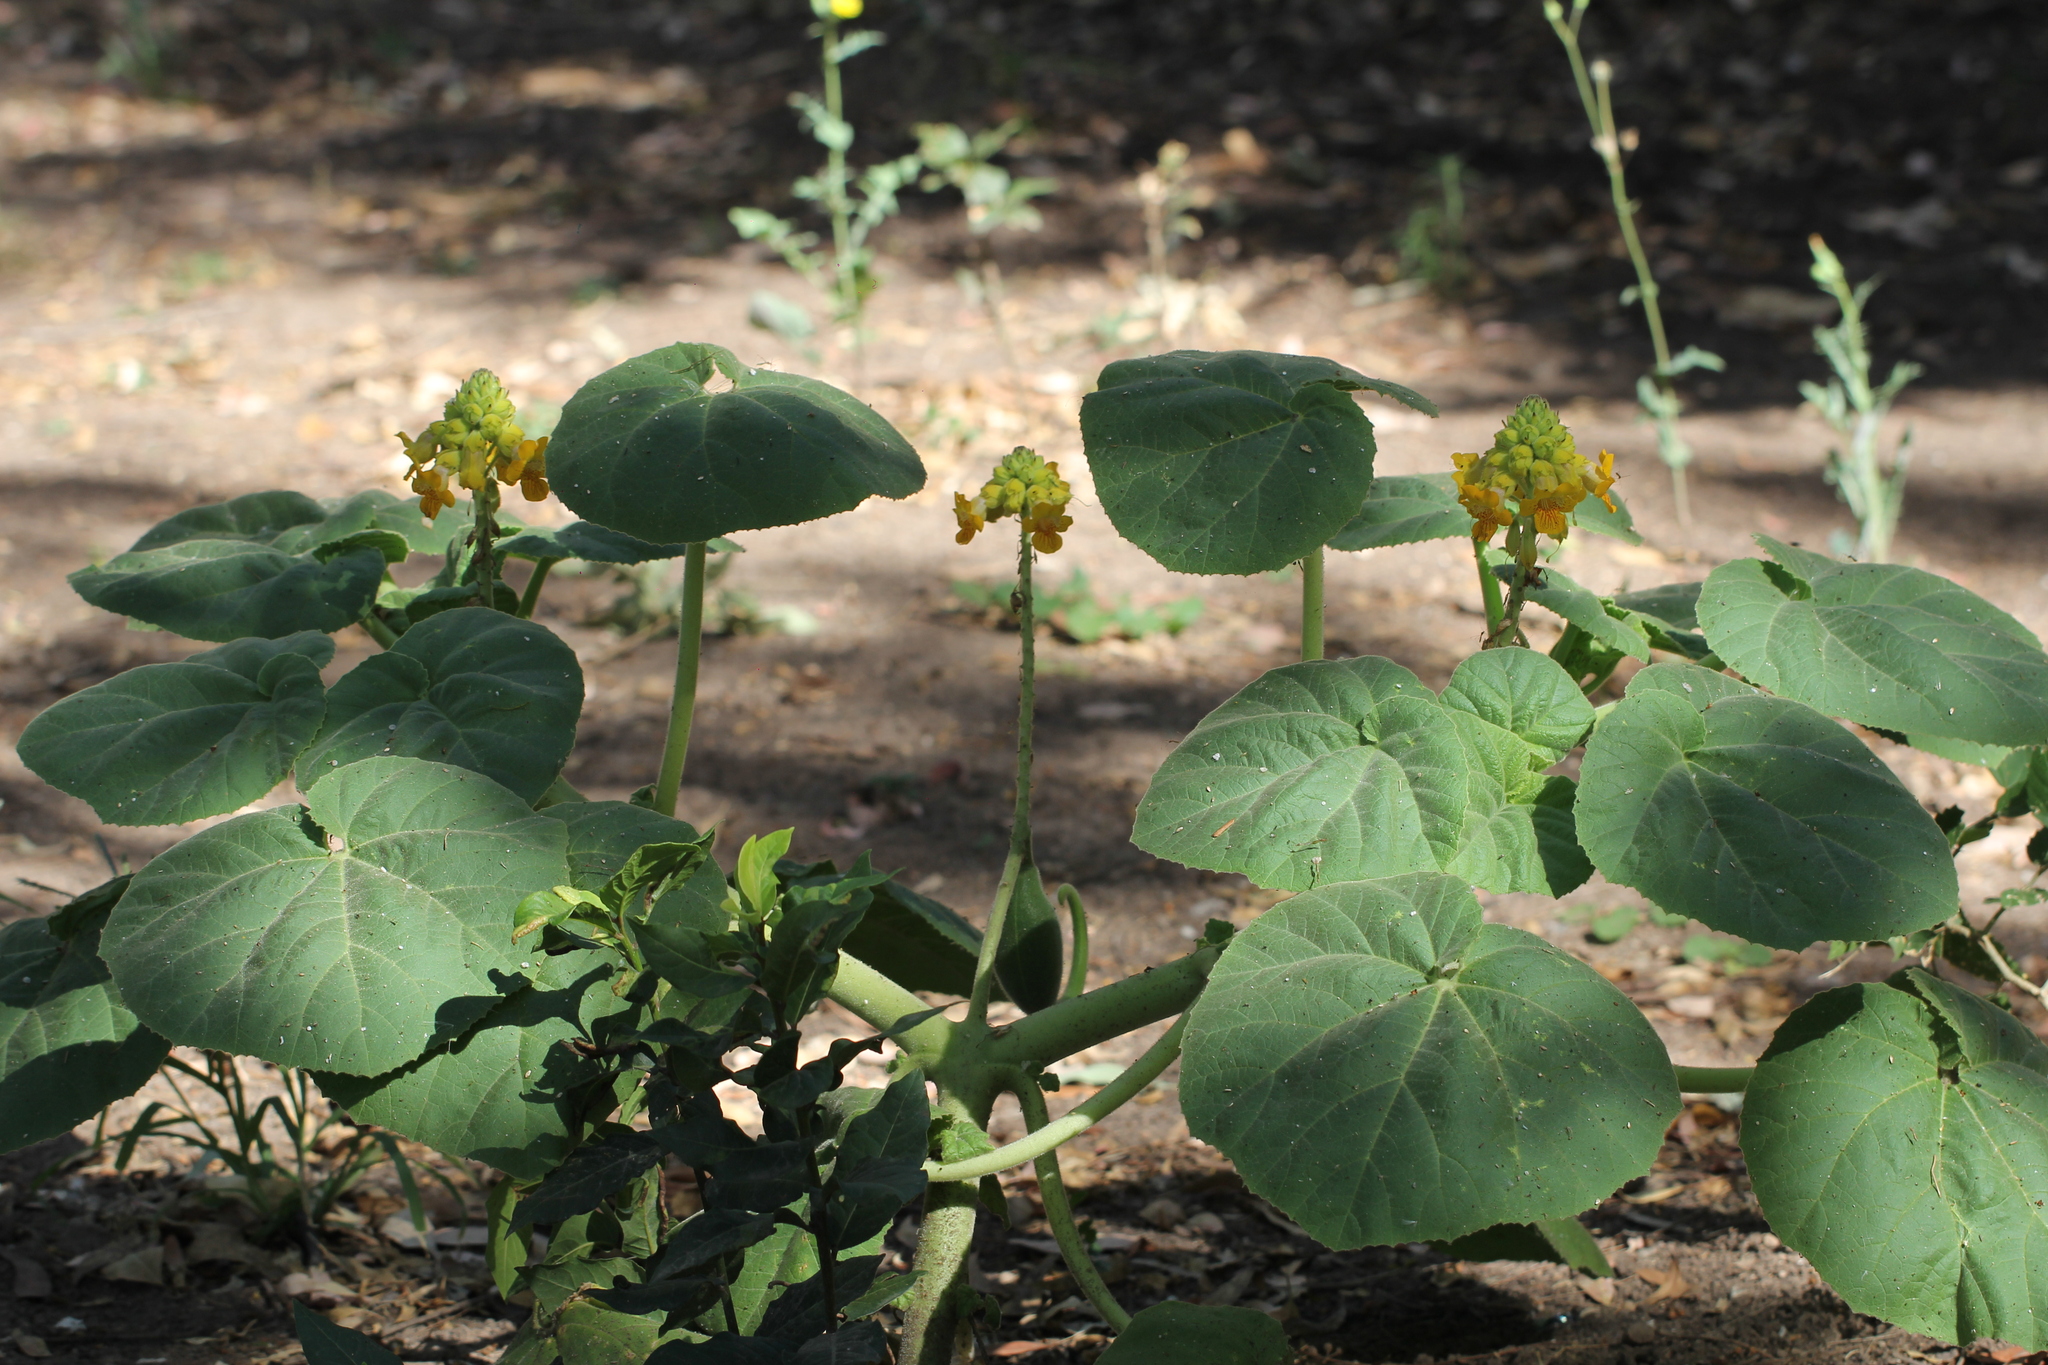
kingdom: Plantae
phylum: Tracheophyta
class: Magnoliopsida
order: Lamiales
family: Martyniaceae
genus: Ibicella
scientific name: Ibicella lutea
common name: Yellow unicorn-plant
